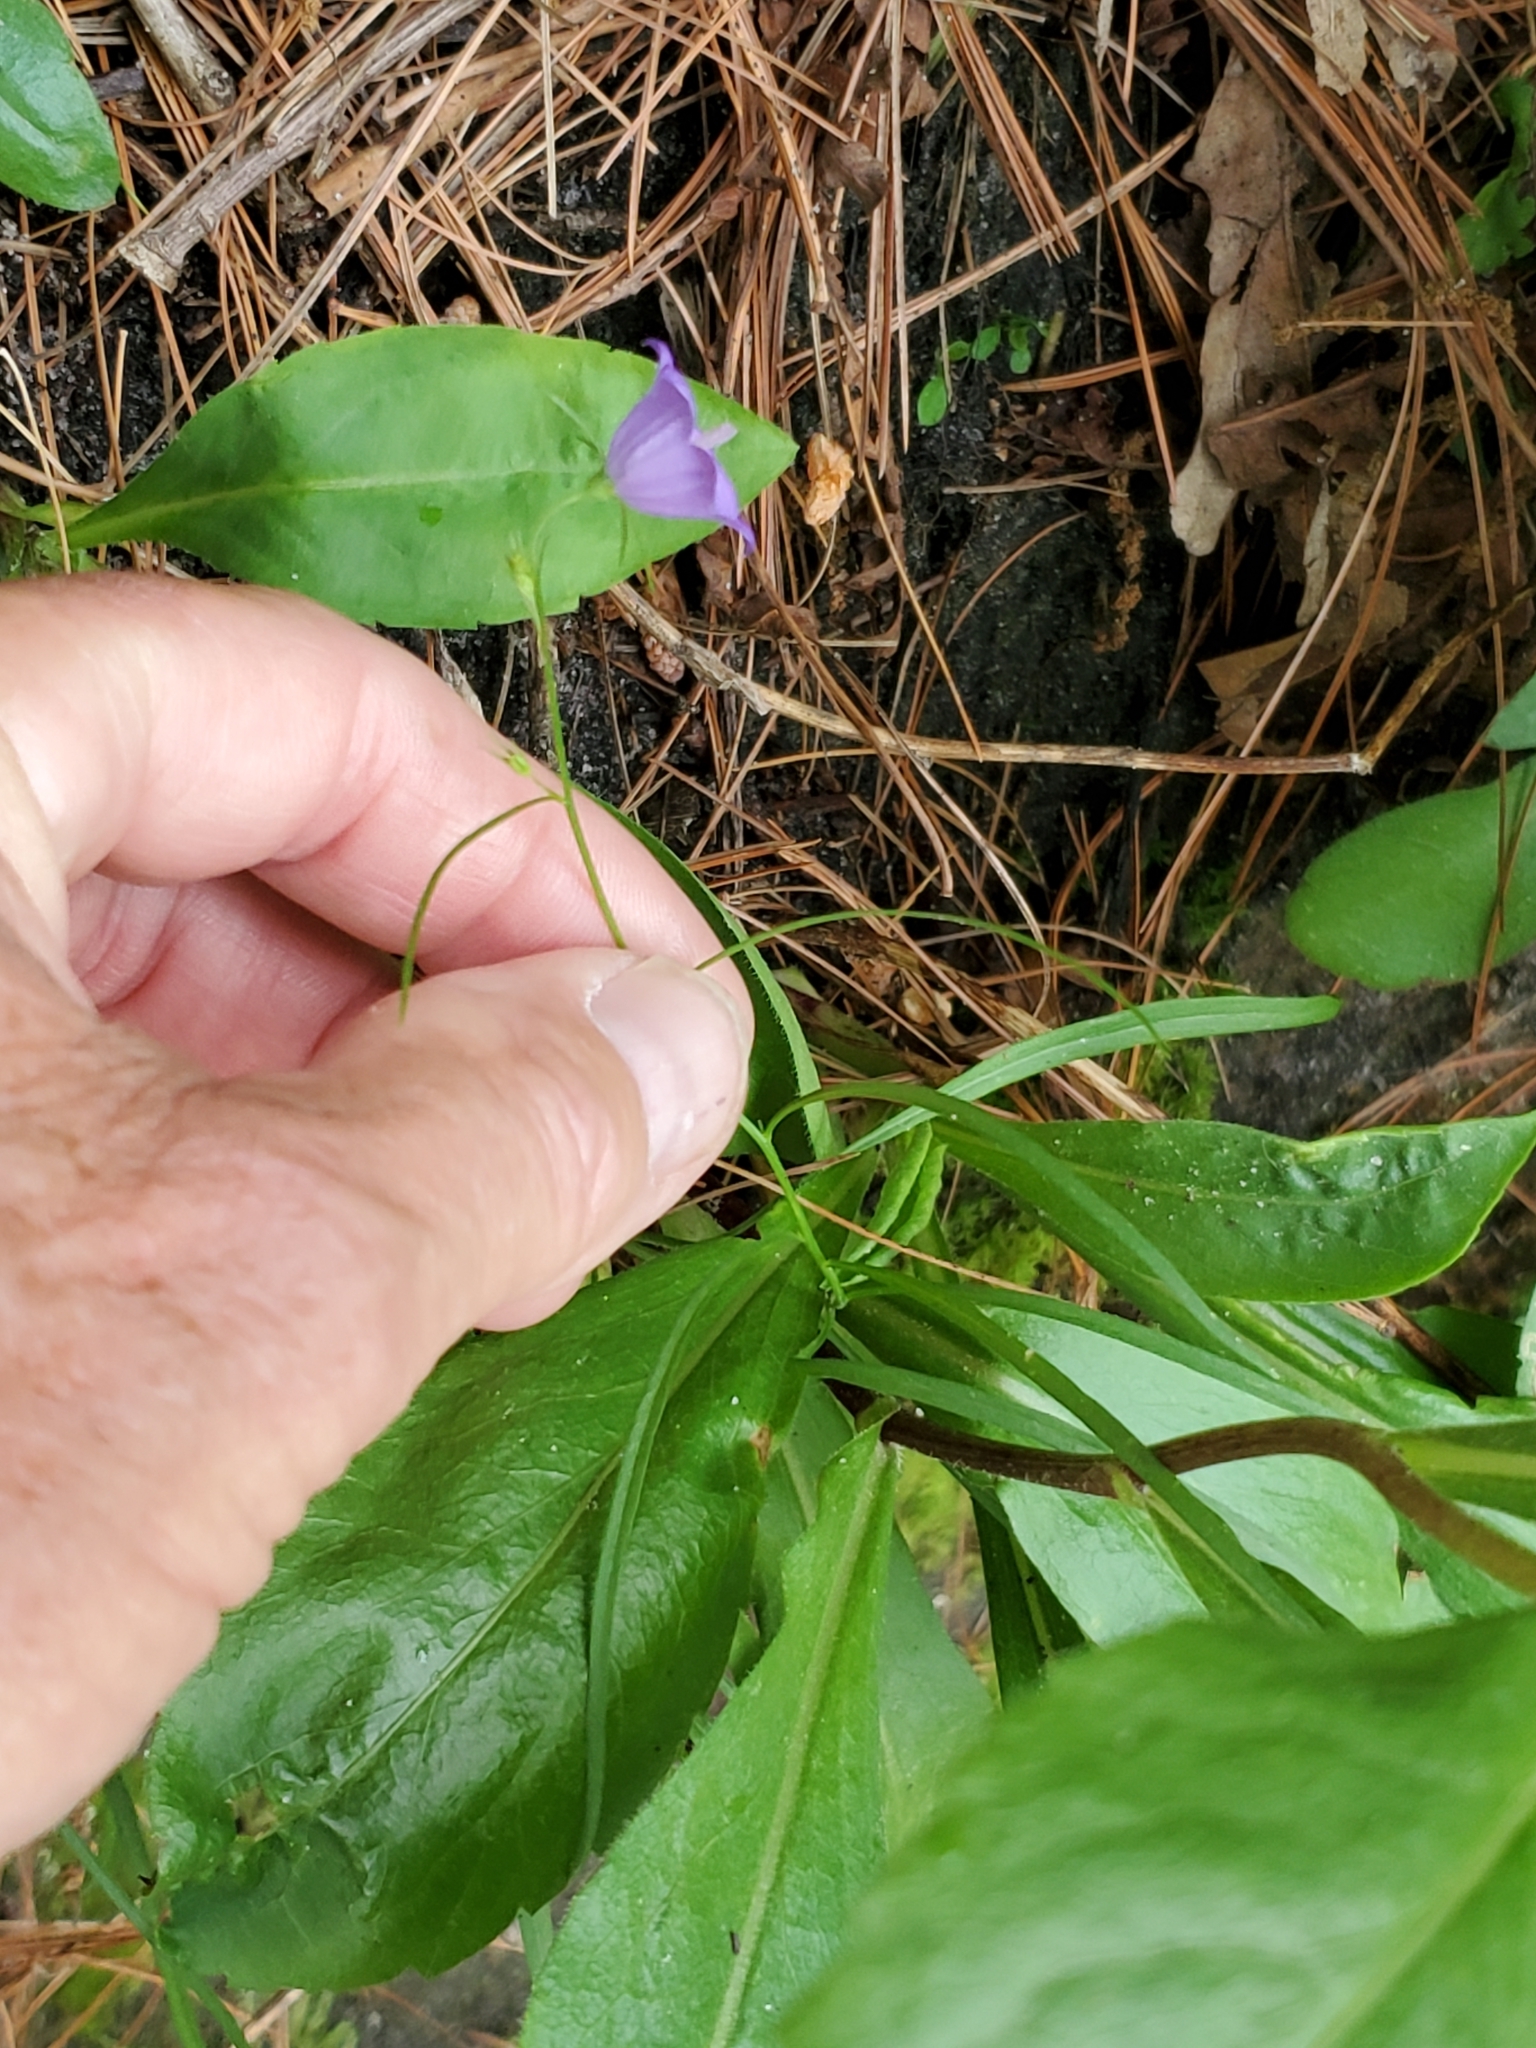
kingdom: Plantae
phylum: Tracheophyta
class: Magnoliopsida
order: Asterales
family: Campanulaceae
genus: Campanula
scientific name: Campanula intercedens
